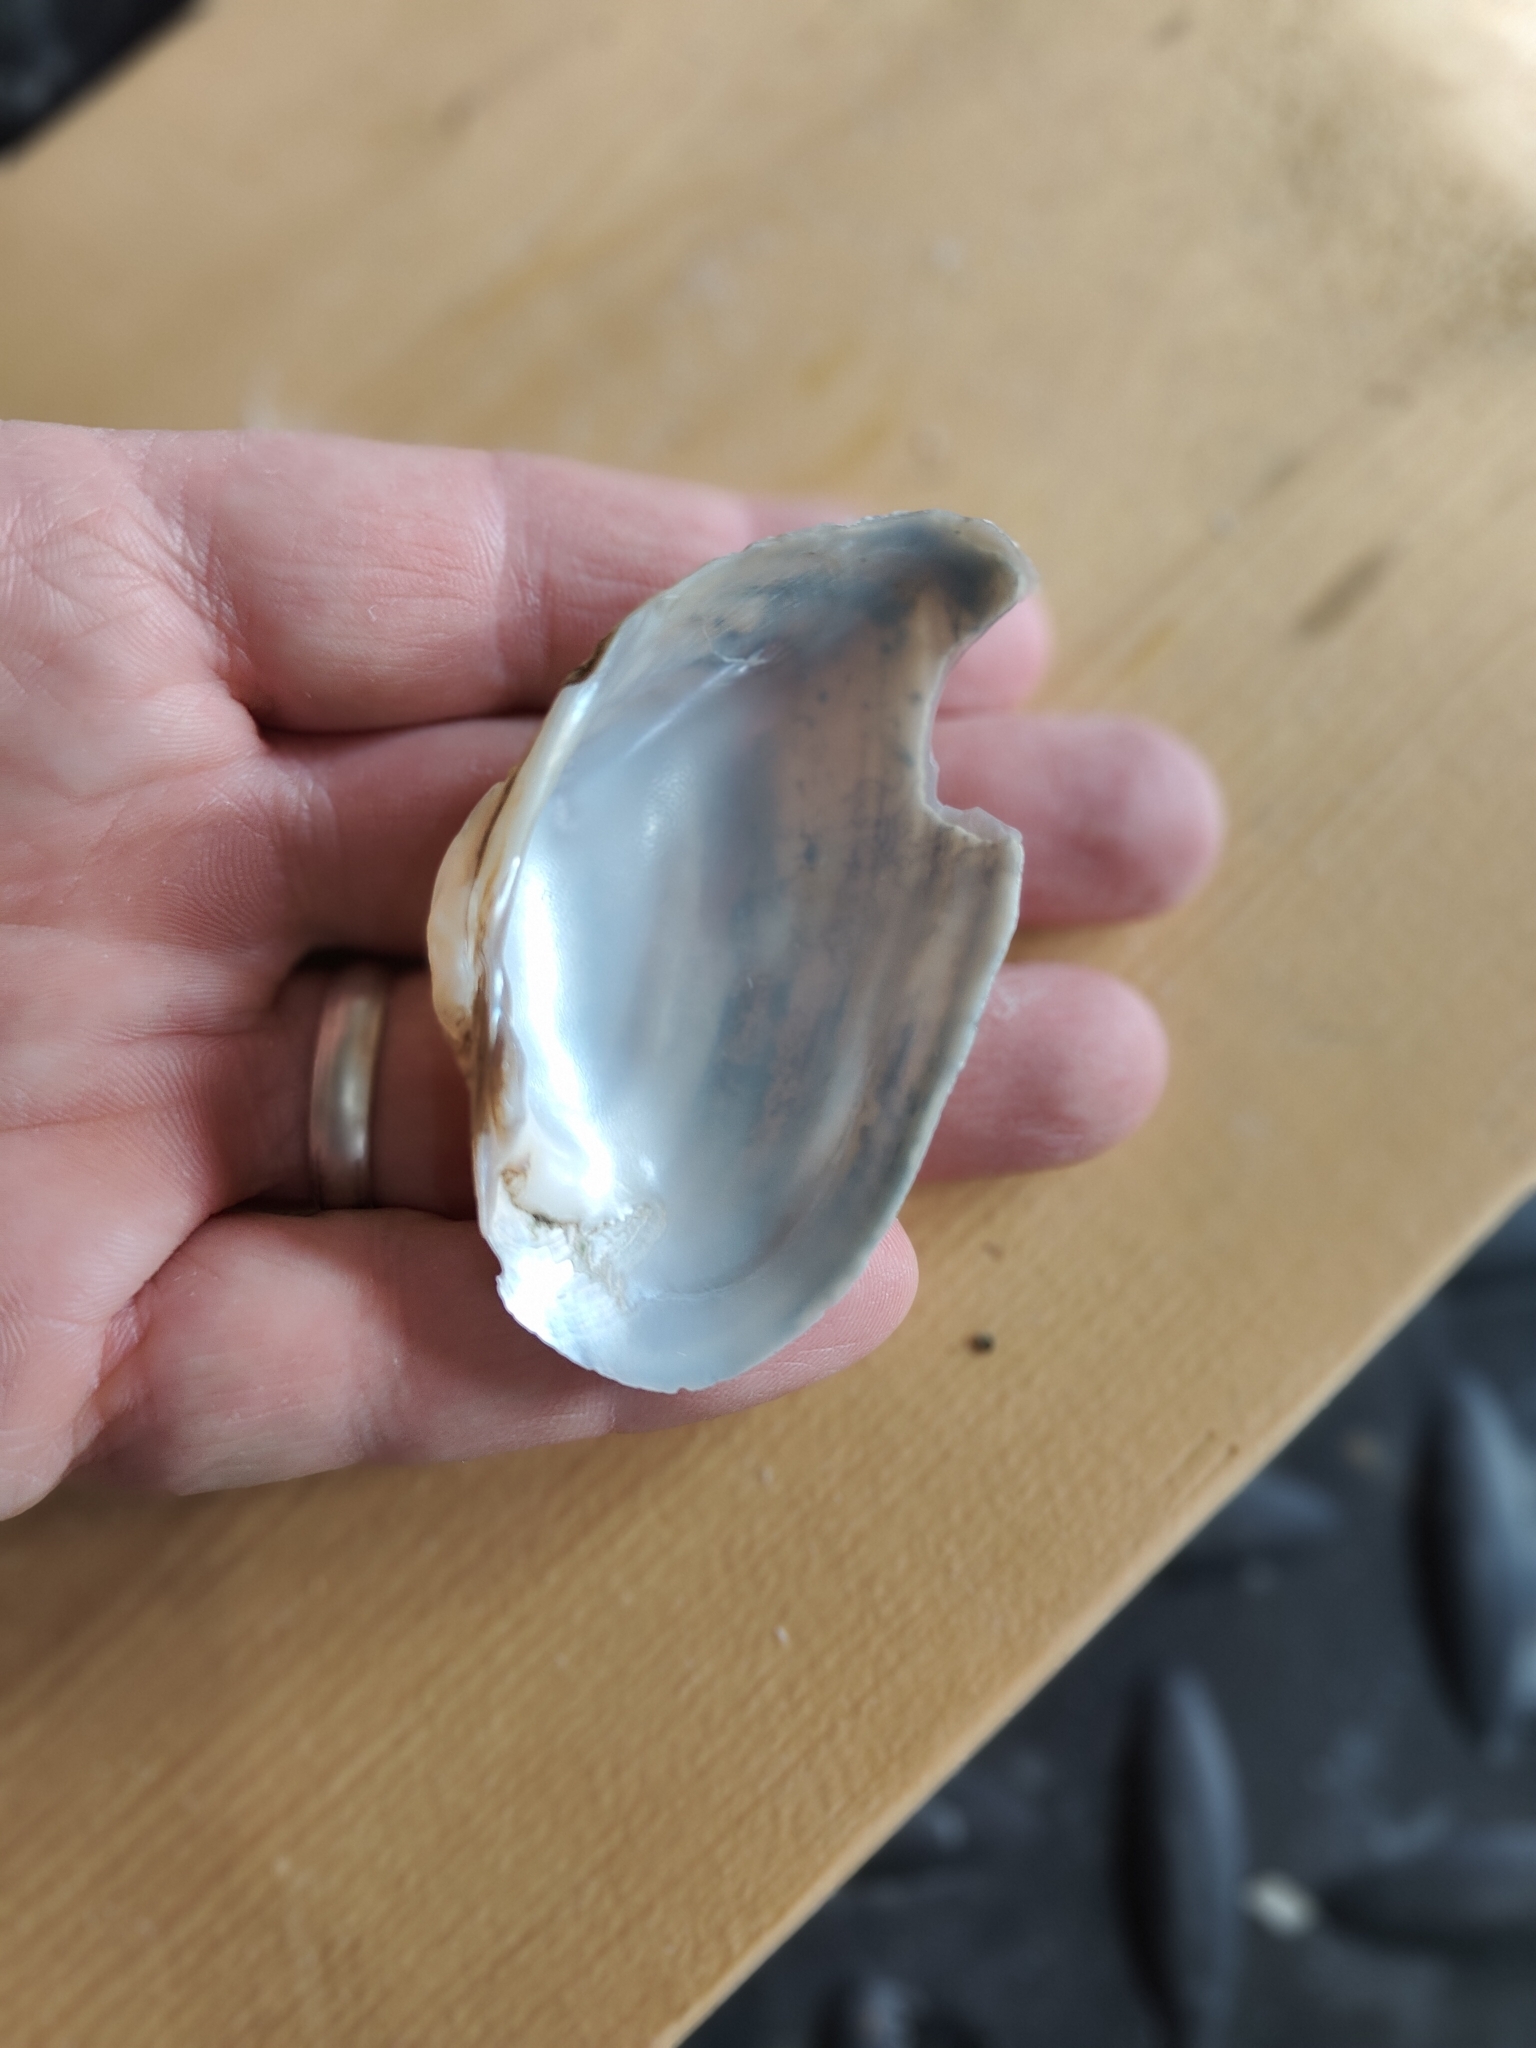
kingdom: Animalia
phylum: Mollusca
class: Bivalvia
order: Unionida
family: Unionidae
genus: Alasmidonta
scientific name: Alasmidonta marginata
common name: Elktoe
